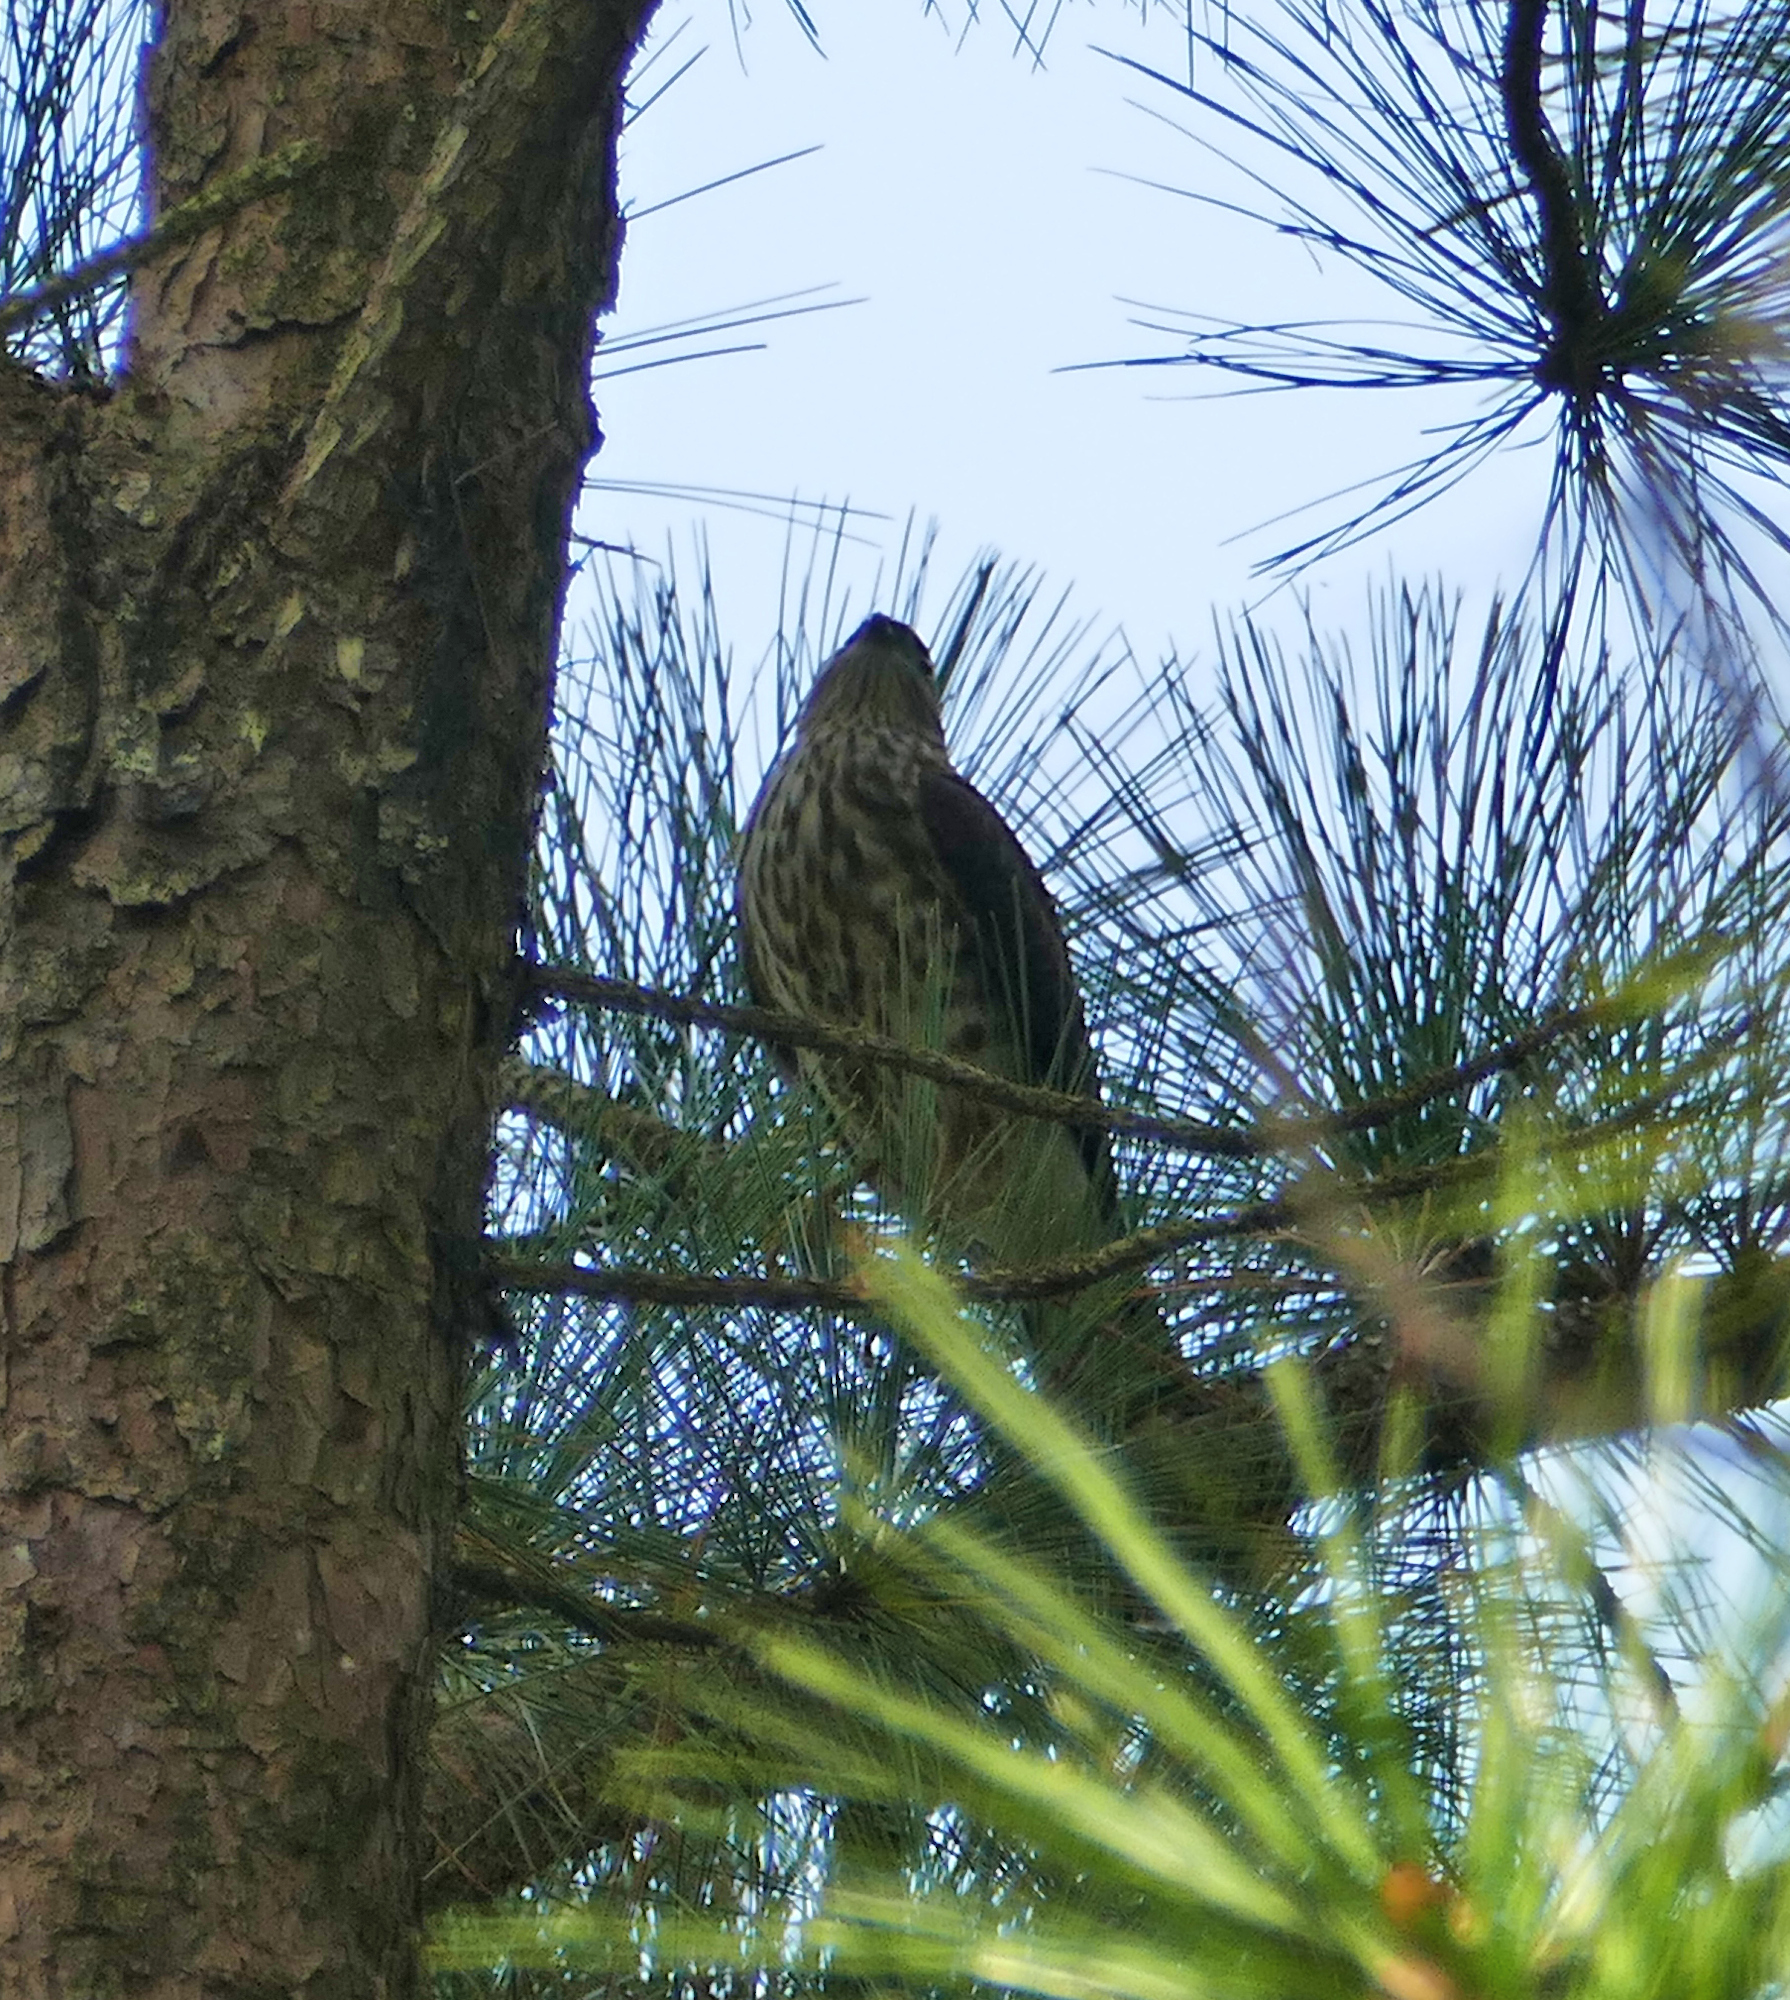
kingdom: Animalia
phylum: Chordata
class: Aves
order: Accipitriformes
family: Accipitridae
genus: Accipiter
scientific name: Accipiter striatus
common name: Sharp-shinned hawk
